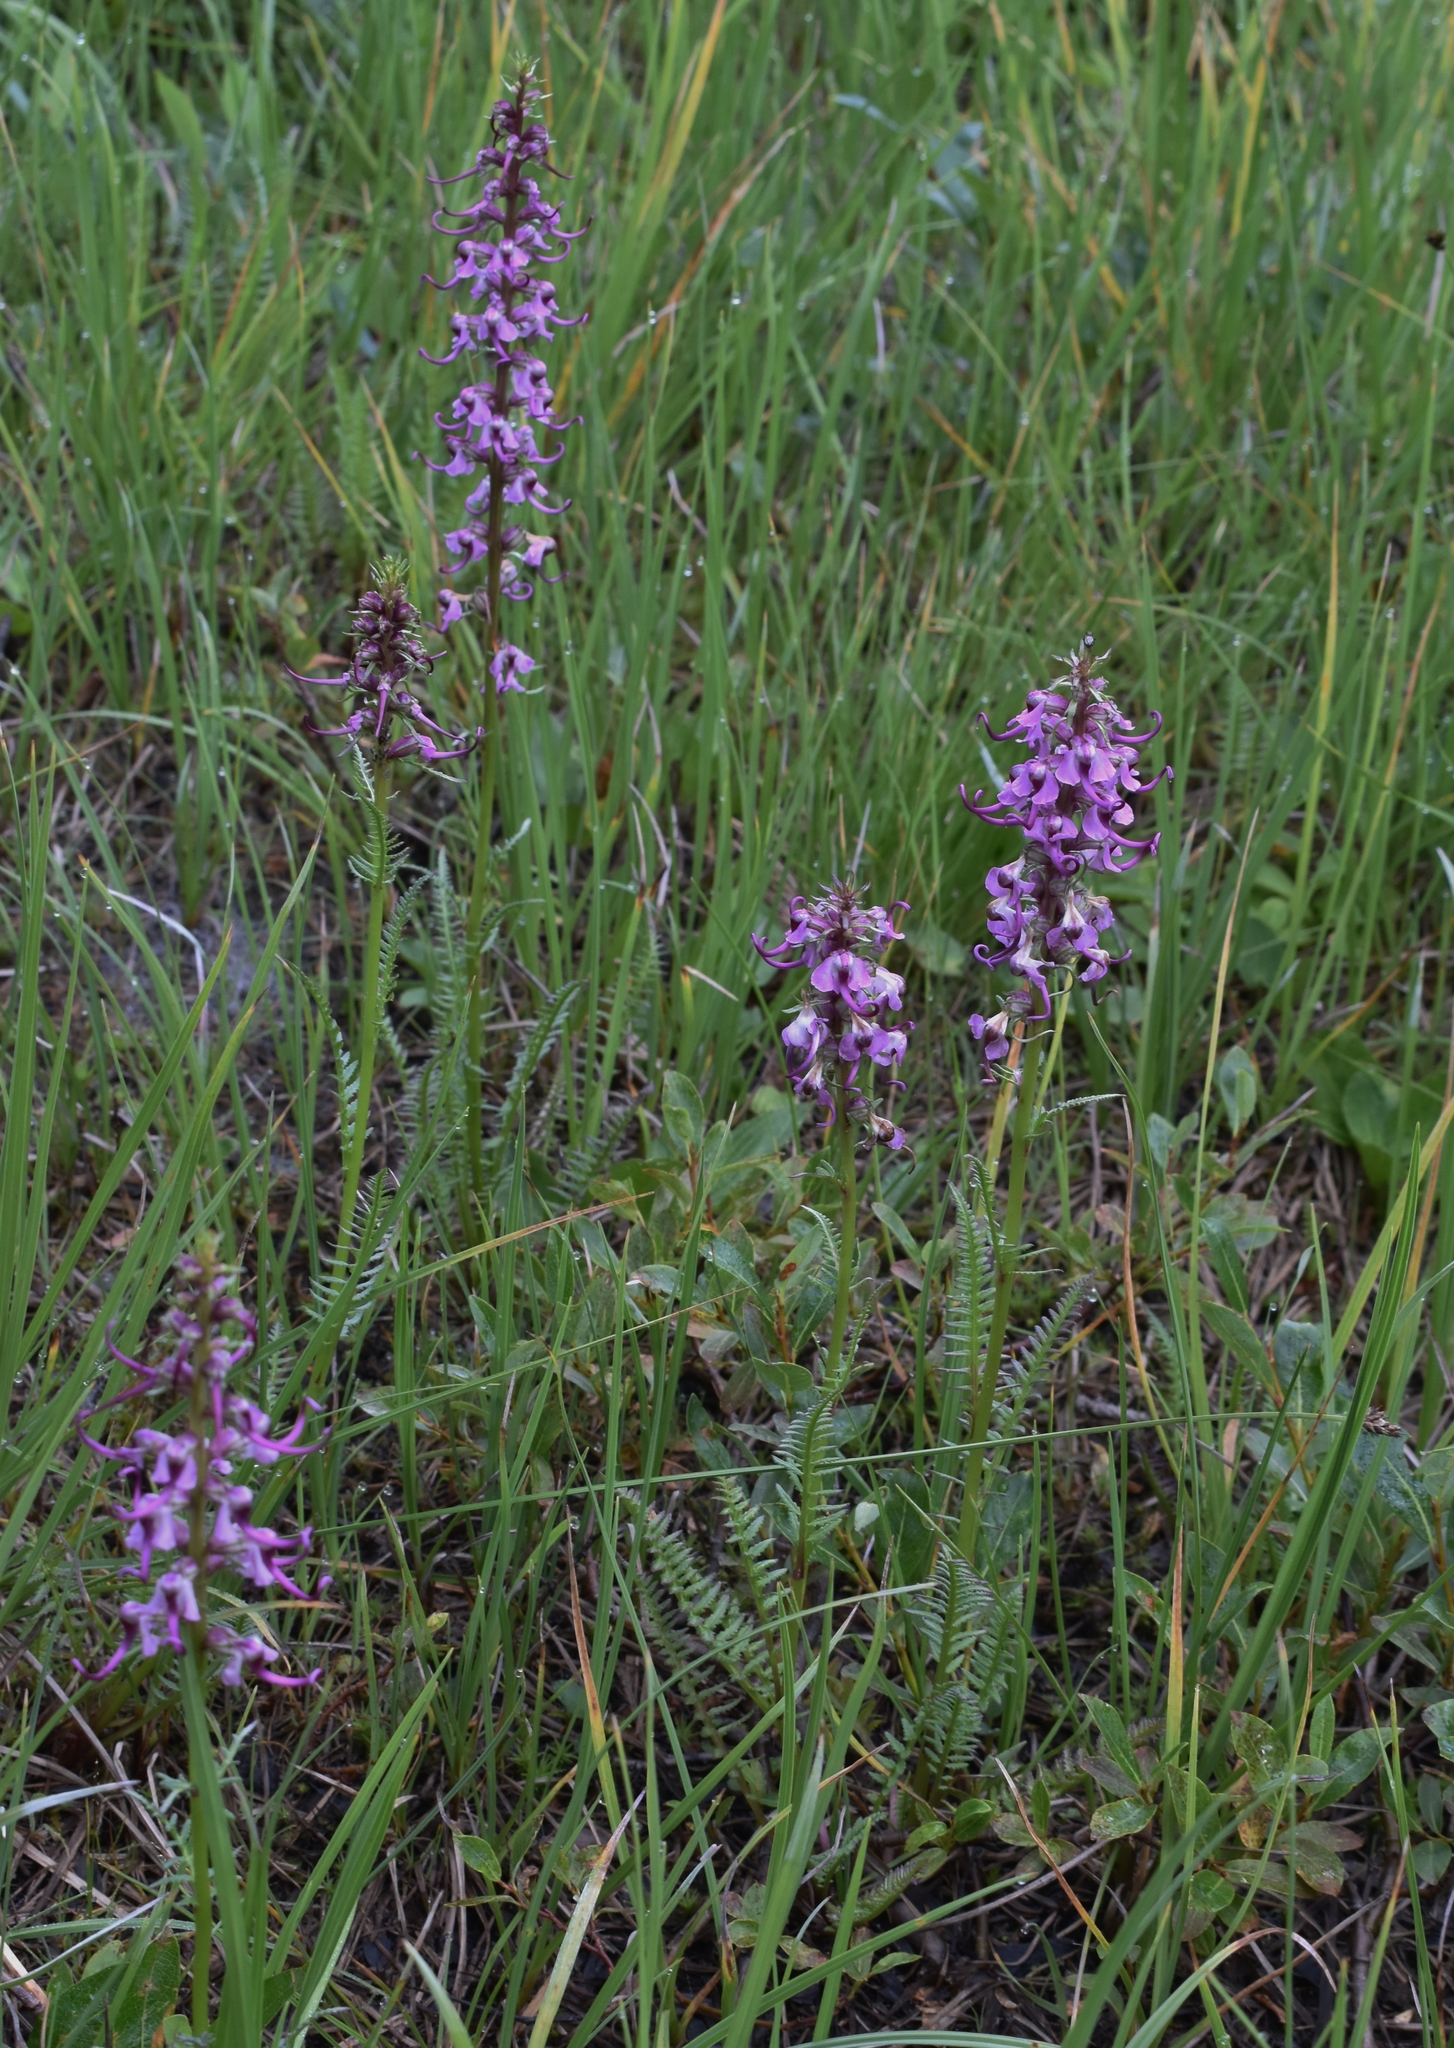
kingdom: Plantae
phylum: Tracheophyta
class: Magnoliopsida
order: Lamiales
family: Orobanchaceae
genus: Pedicularis
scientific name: Pedicularis groenlandica
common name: Elephant's-head
